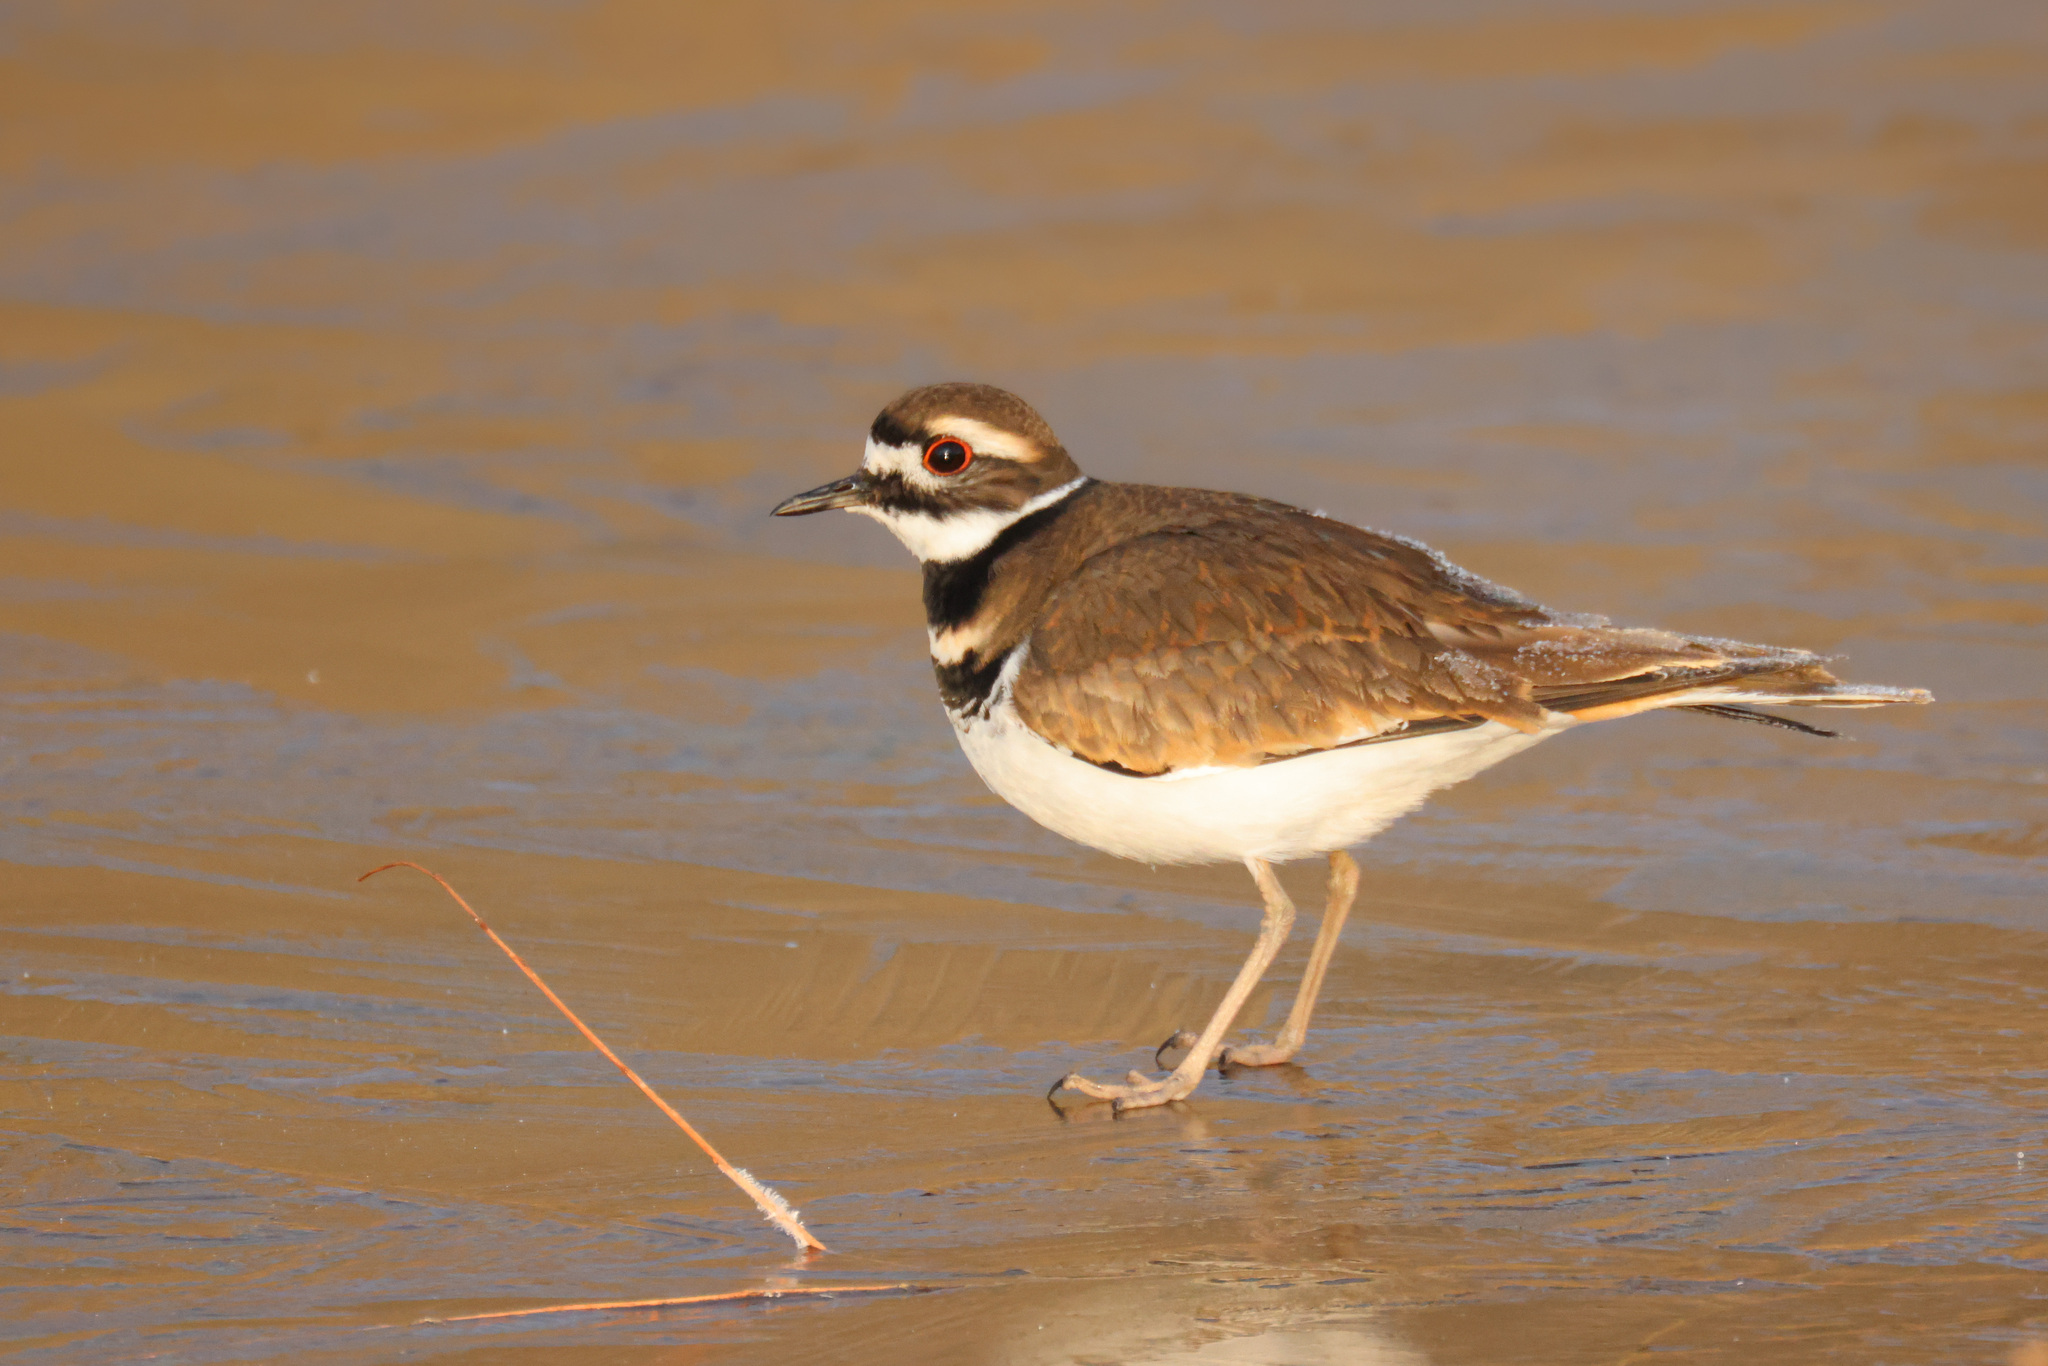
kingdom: Animalia
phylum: Chordata
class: Aves
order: Charadriiformes
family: Charadriidae
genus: Charadrius
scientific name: Charadrius vociferus
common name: Killdeer
